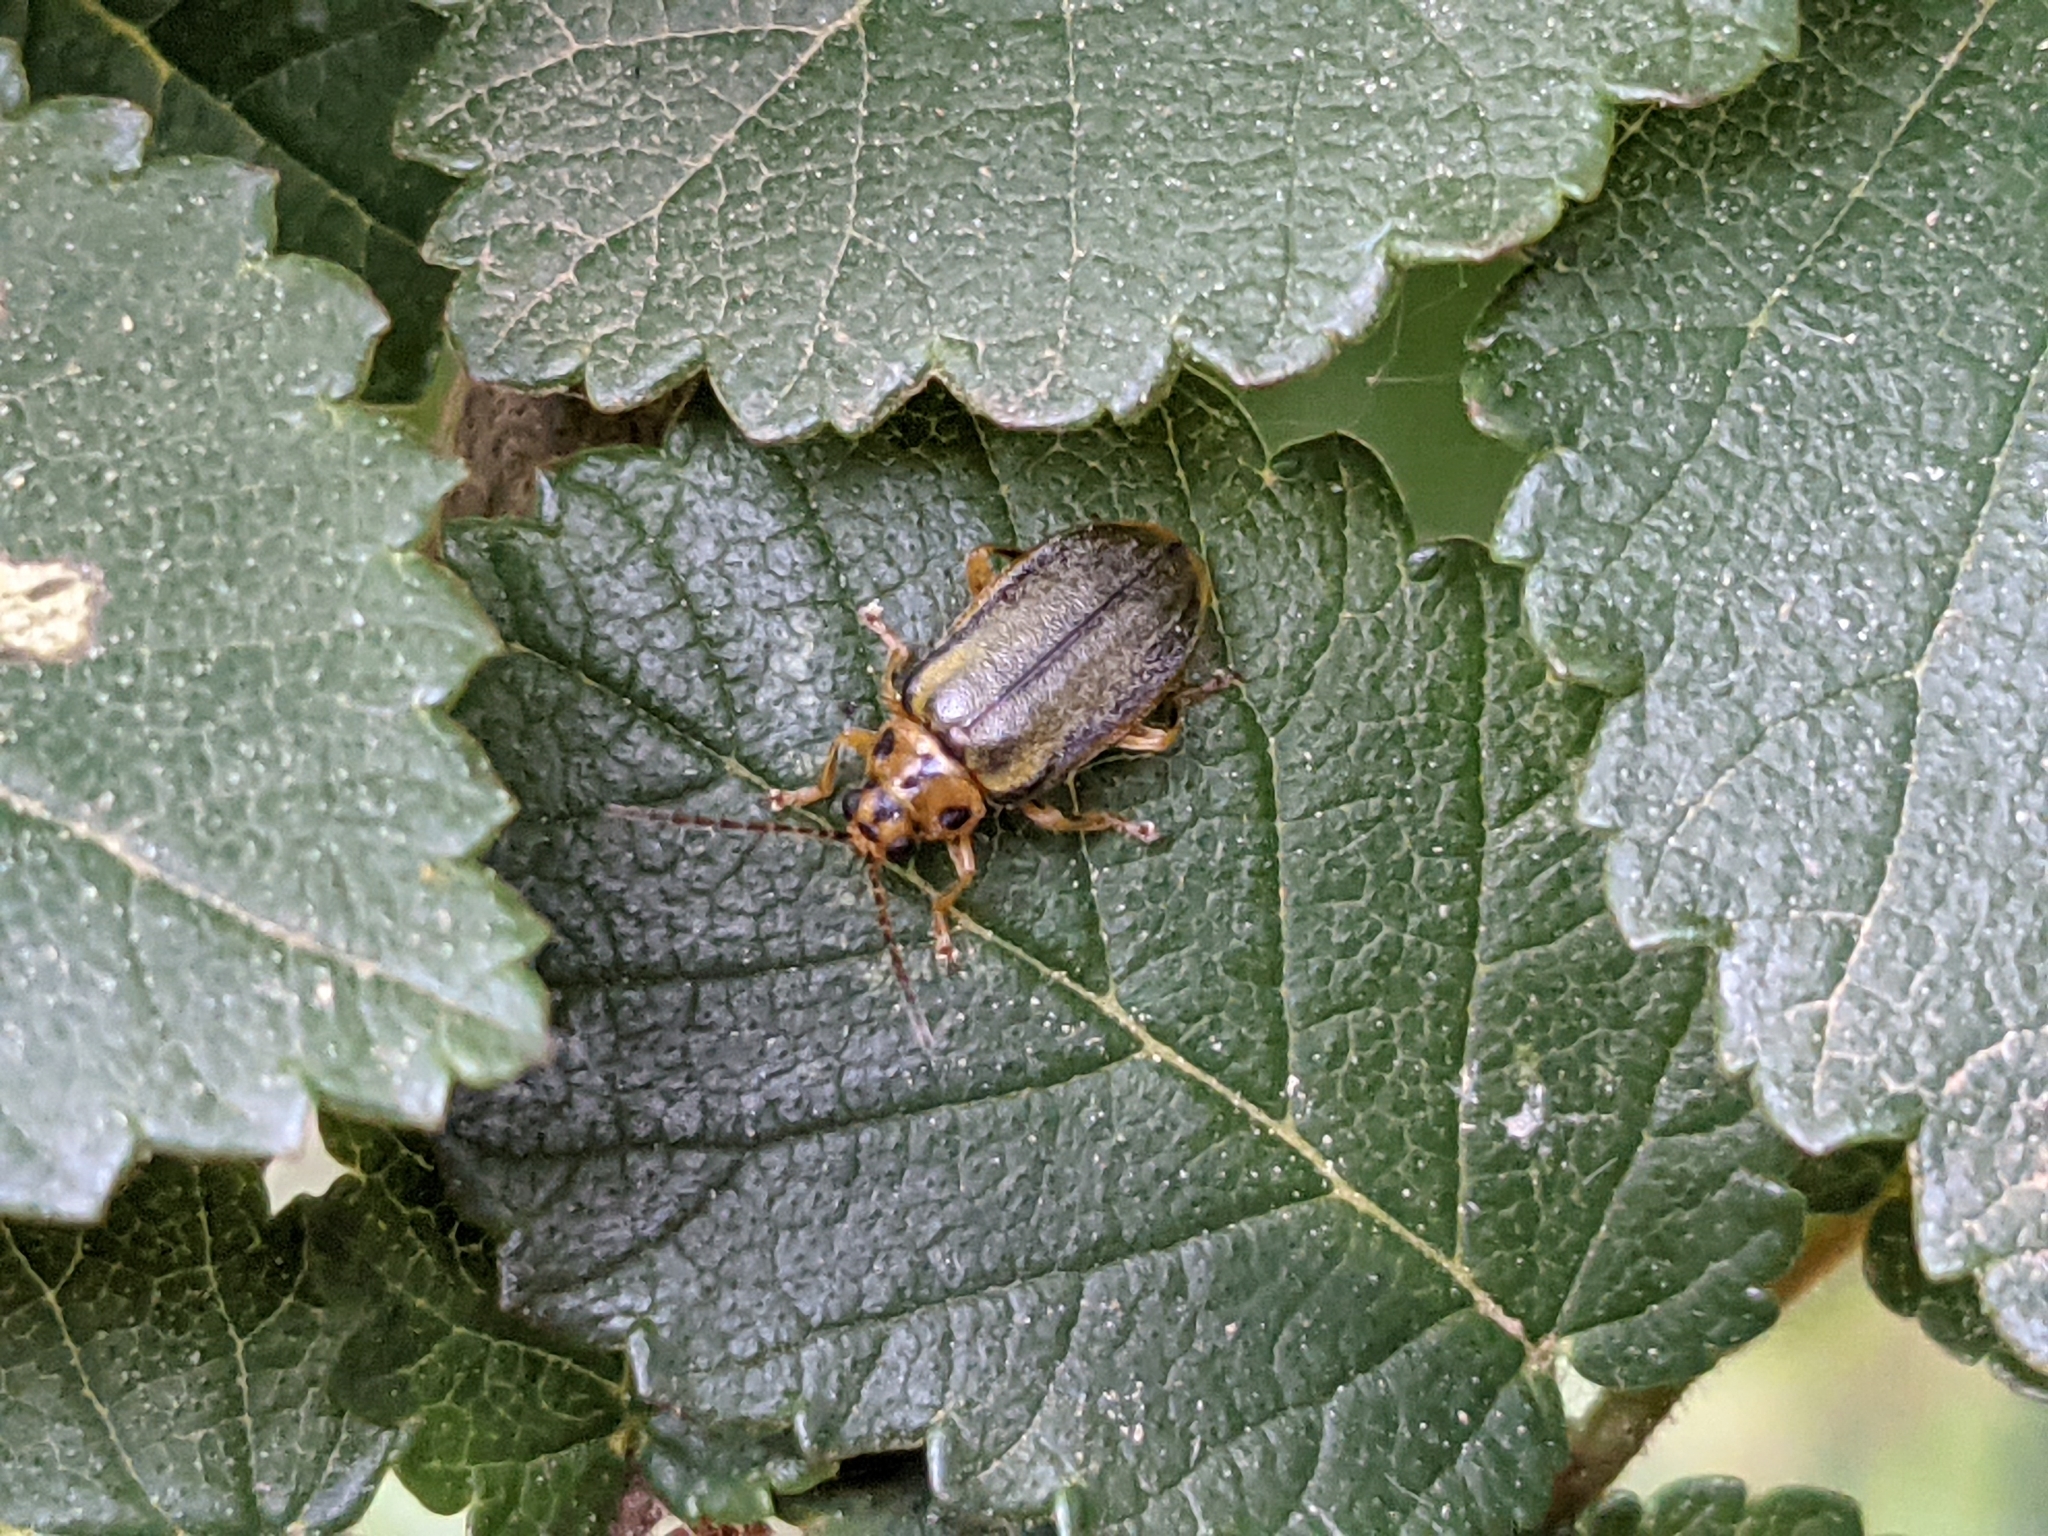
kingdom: Animalia
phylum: Arthropoda
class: Insecta
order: Coleoptera
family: Chrysomelidae
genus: Xanthogaleruca
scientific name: Xanthogaleruca luteola
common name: Elm leaf beetle
